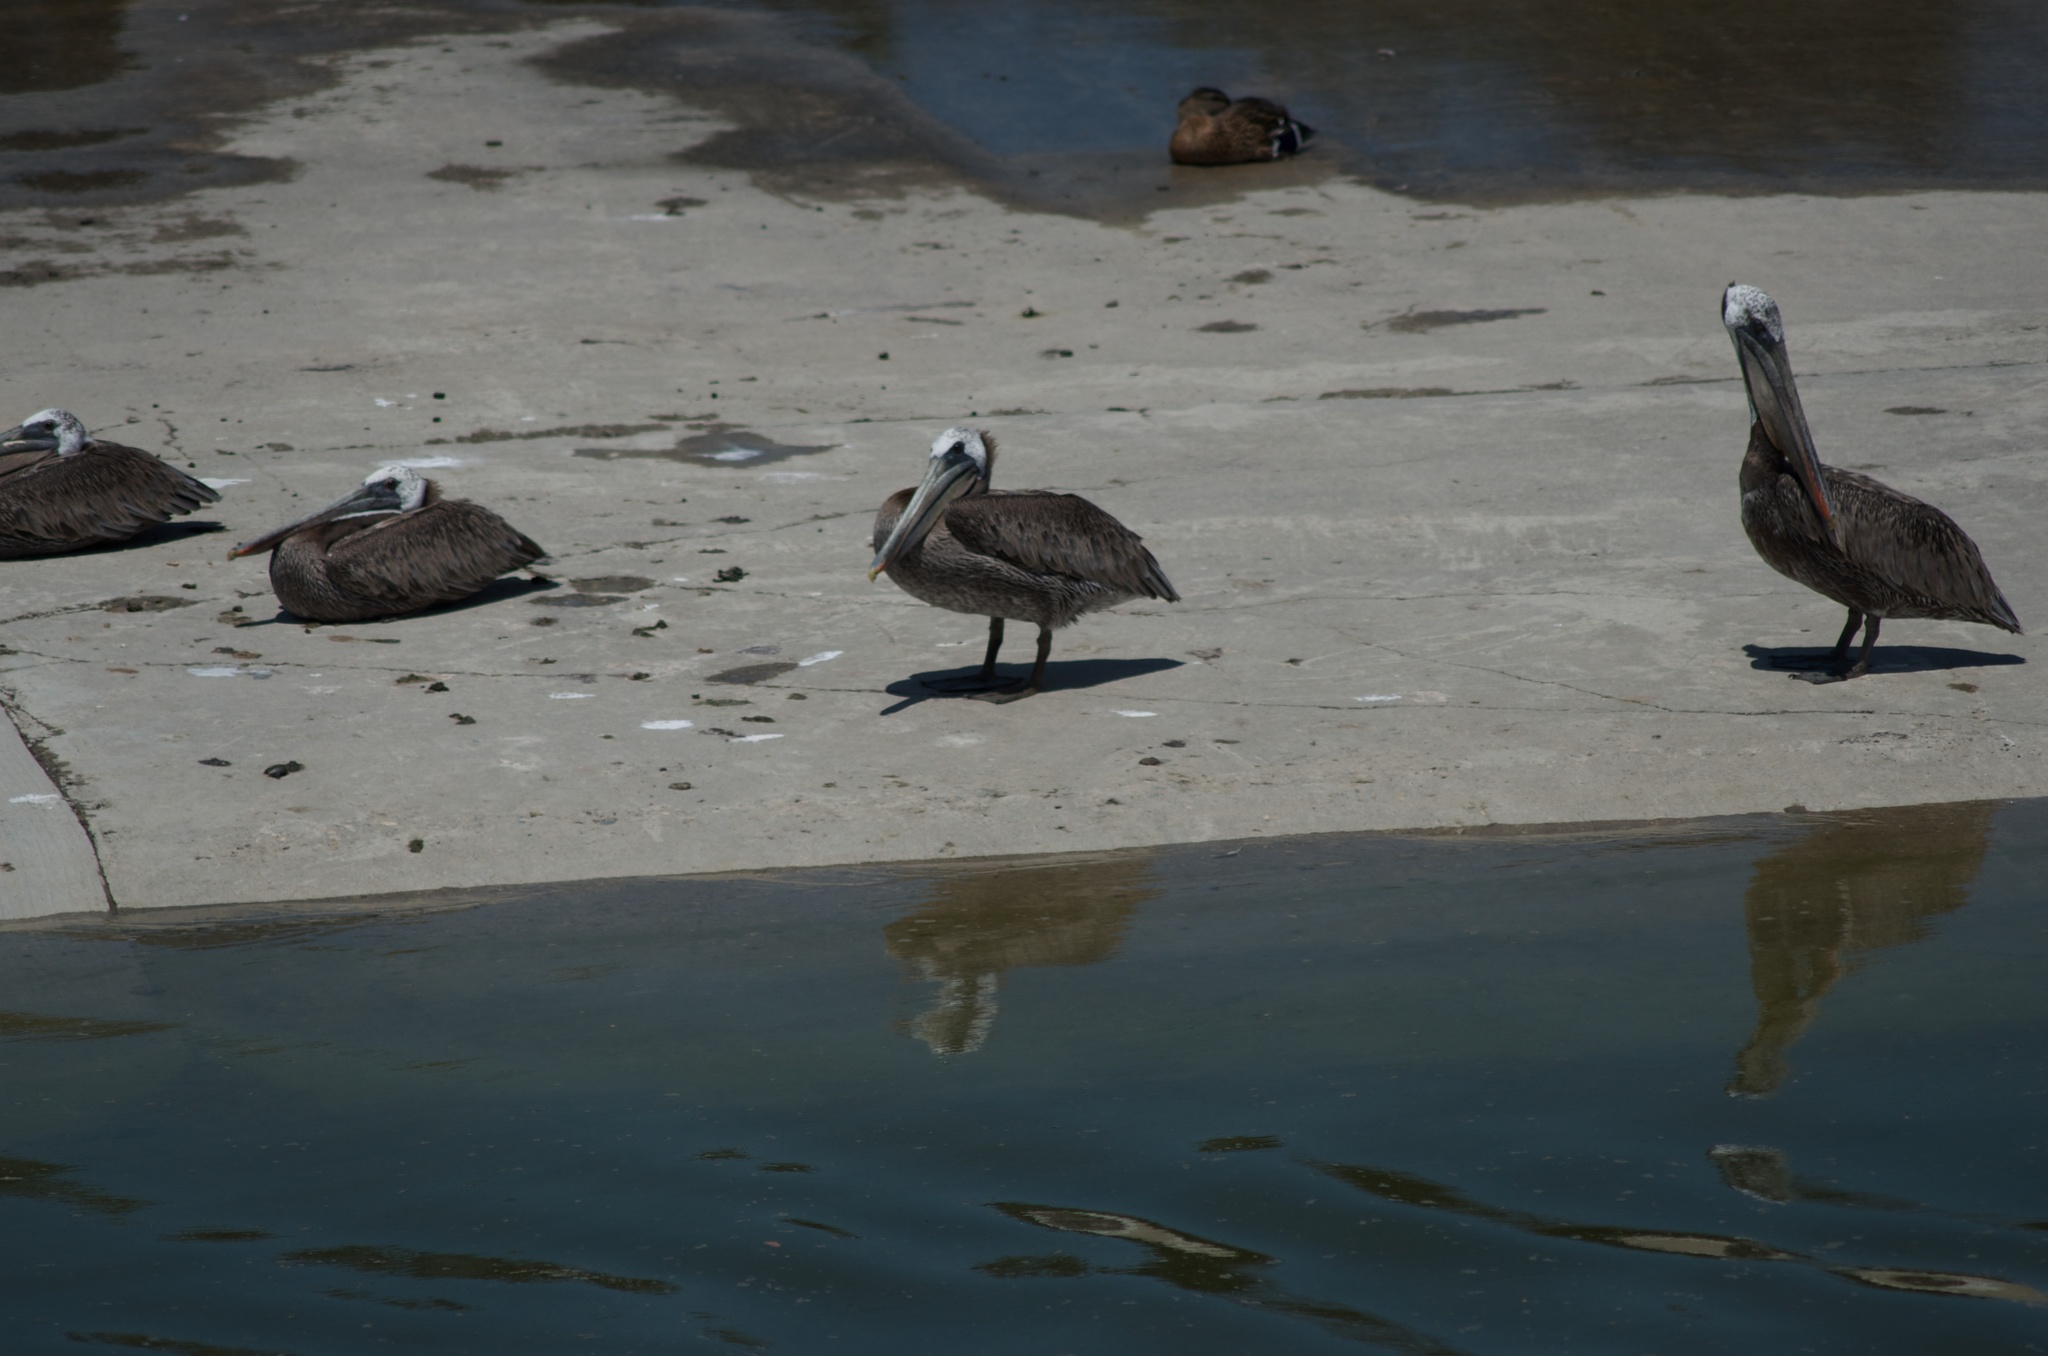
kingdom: Animalia
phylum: Chordata
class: Aves
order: Pelecaniformes
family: Pelecanidae
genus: Pelecanus
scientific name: Pelecanus occidentalis
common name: Brown pelican
